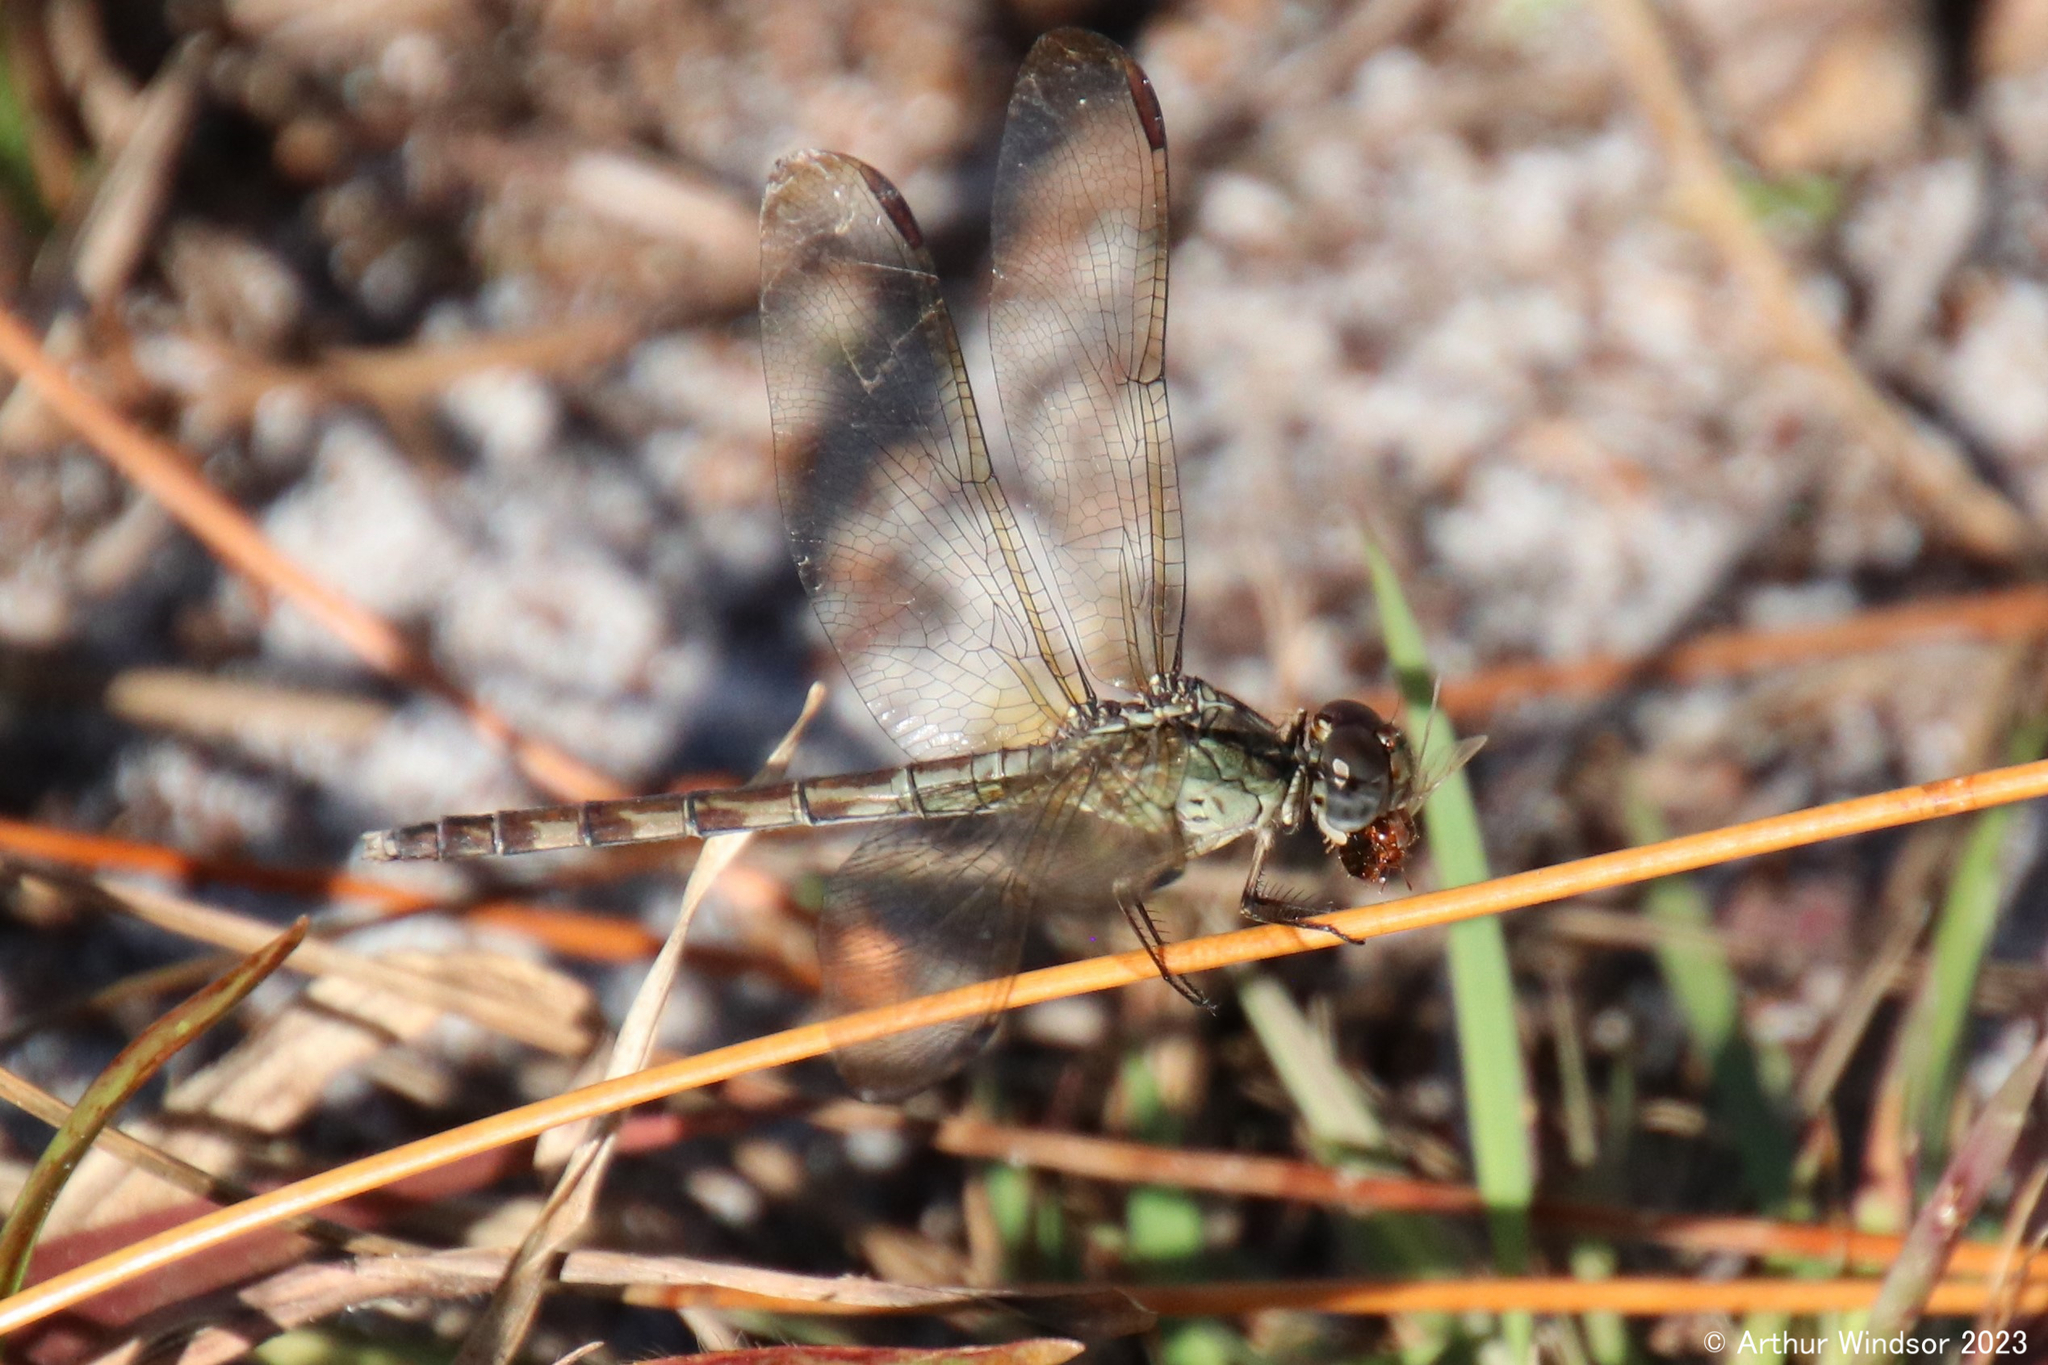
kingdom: Animalia
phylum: Arthropoda
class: Insecta
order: Odonata
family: Libellulidae
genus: Erythrodiplax
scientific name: Erythrodiplax umbrata
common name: Band-winged dragonlet
